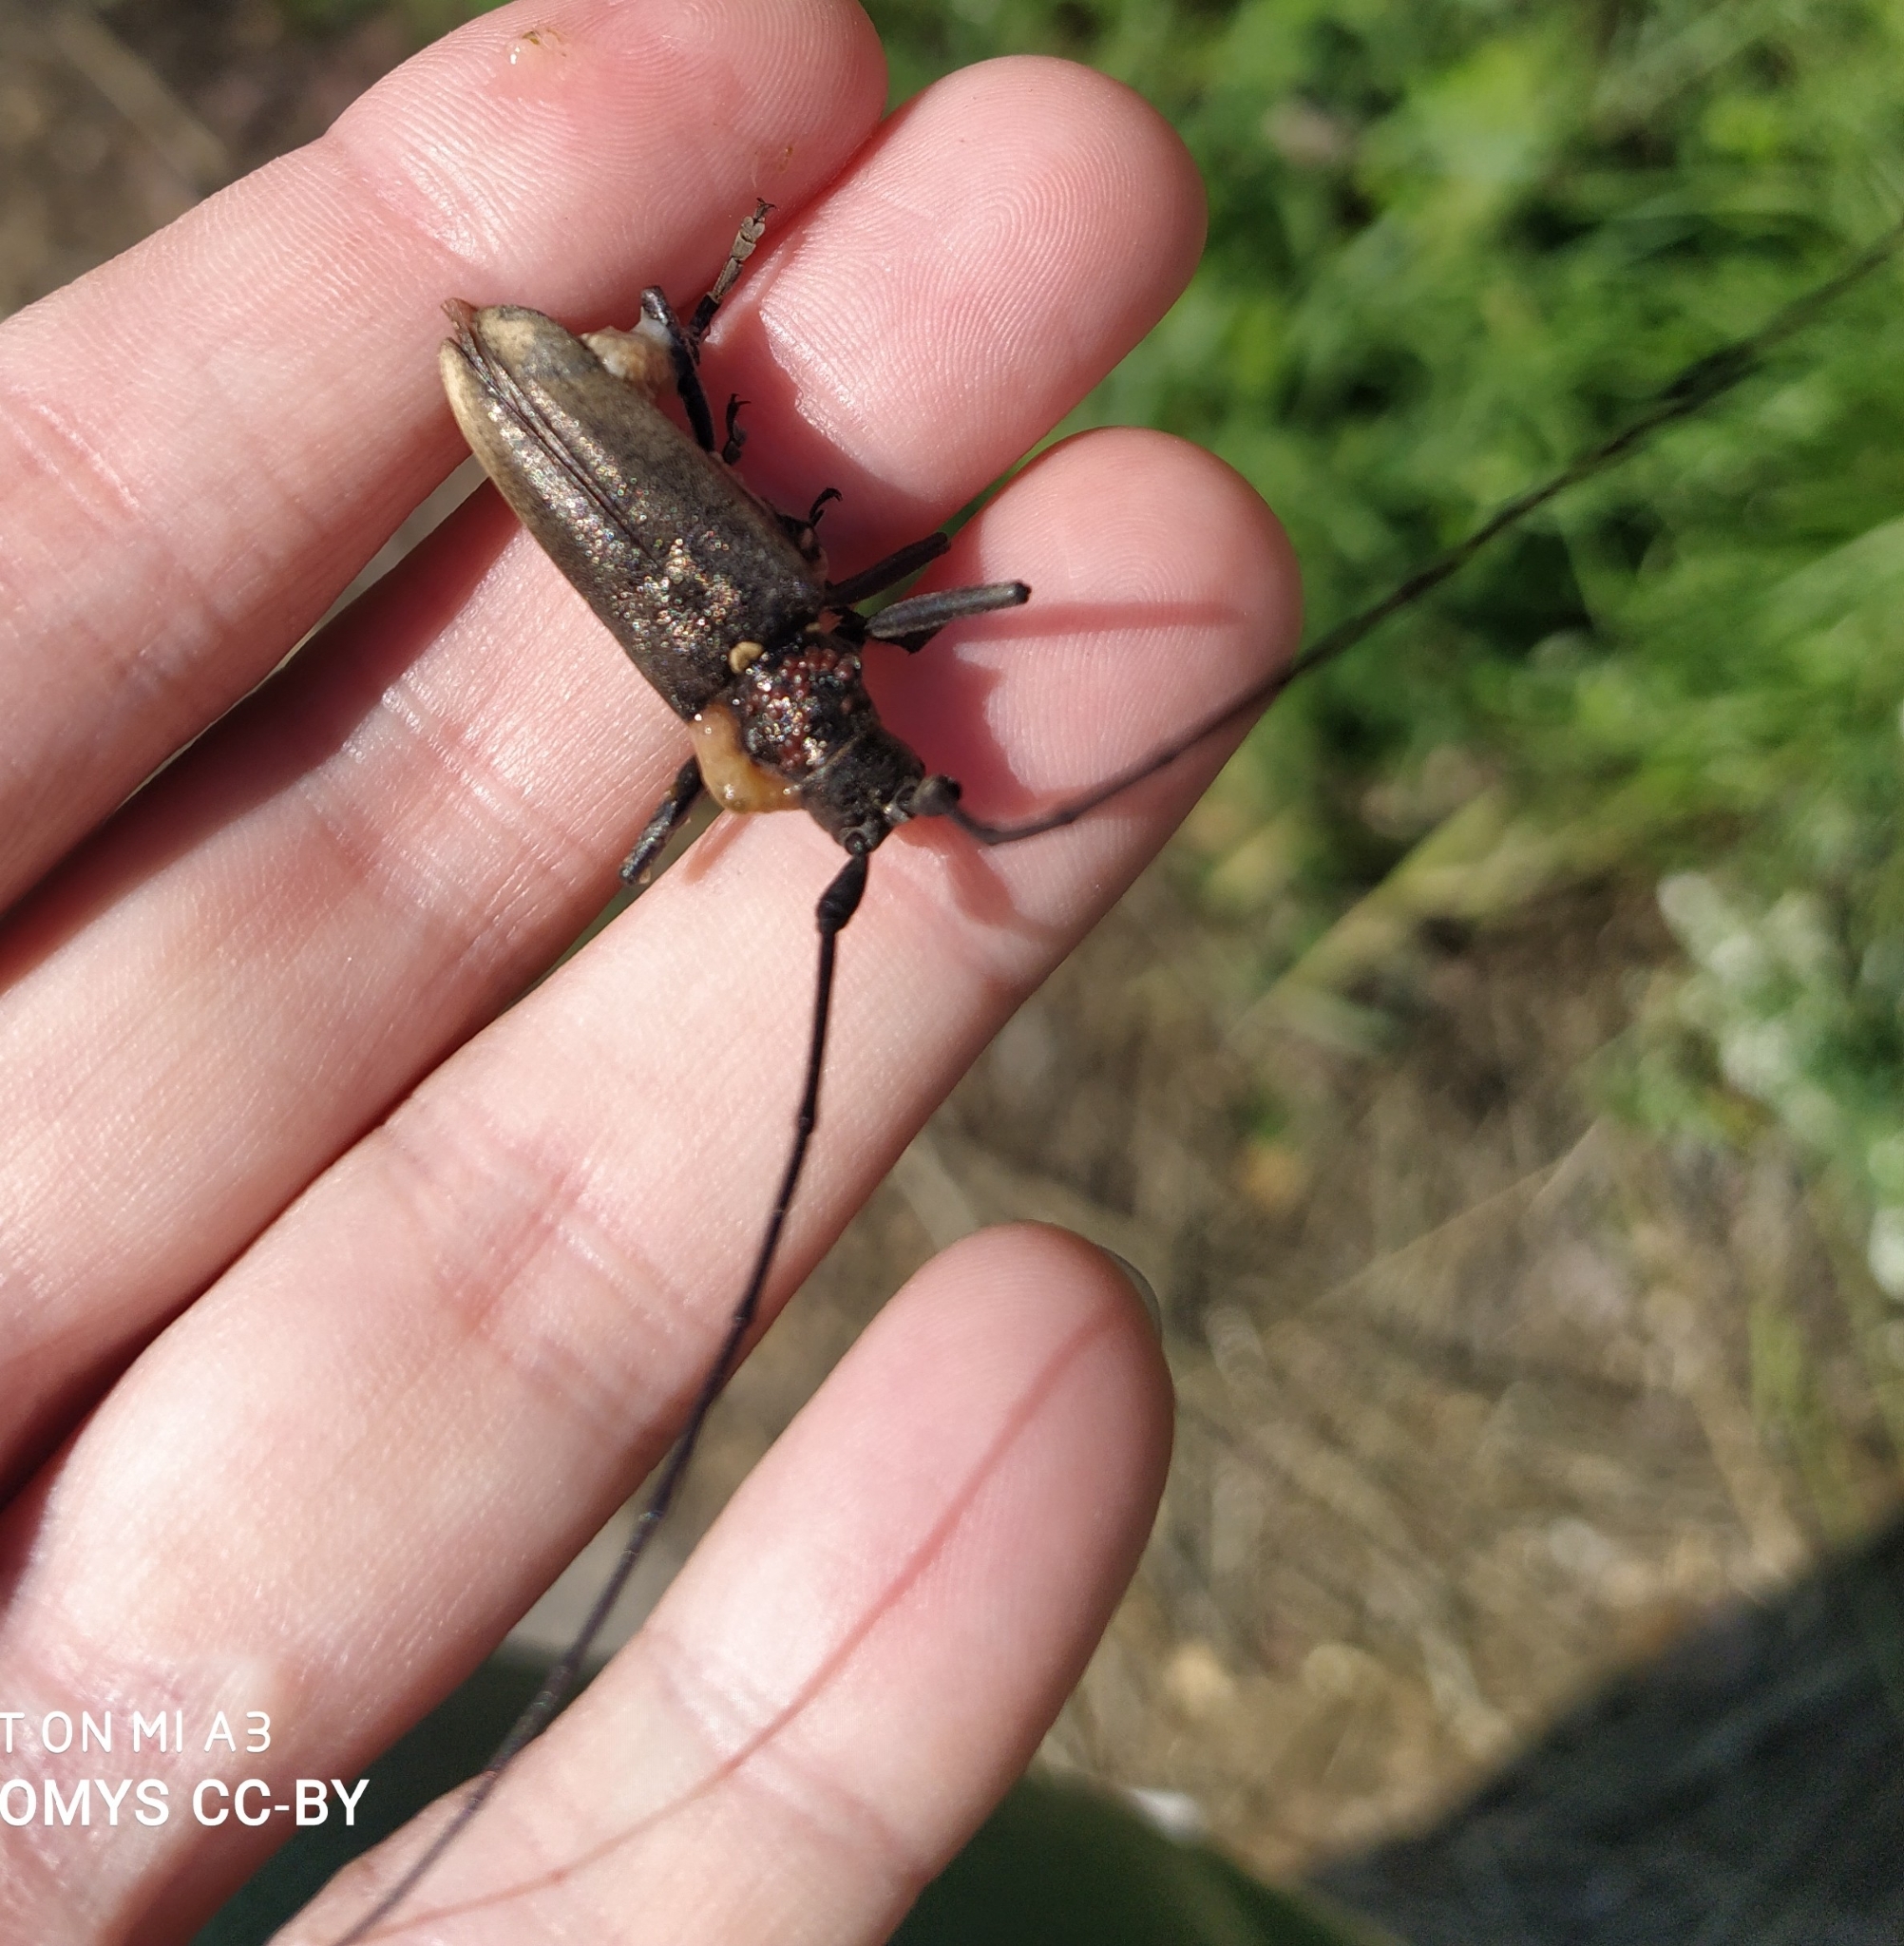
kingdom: Animalia
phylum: Arthropoda
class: Insecta
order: Coleoptera
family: Cerambycidae
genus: Monochamus
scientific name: Monochamus sartor
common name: Pine sawyer
